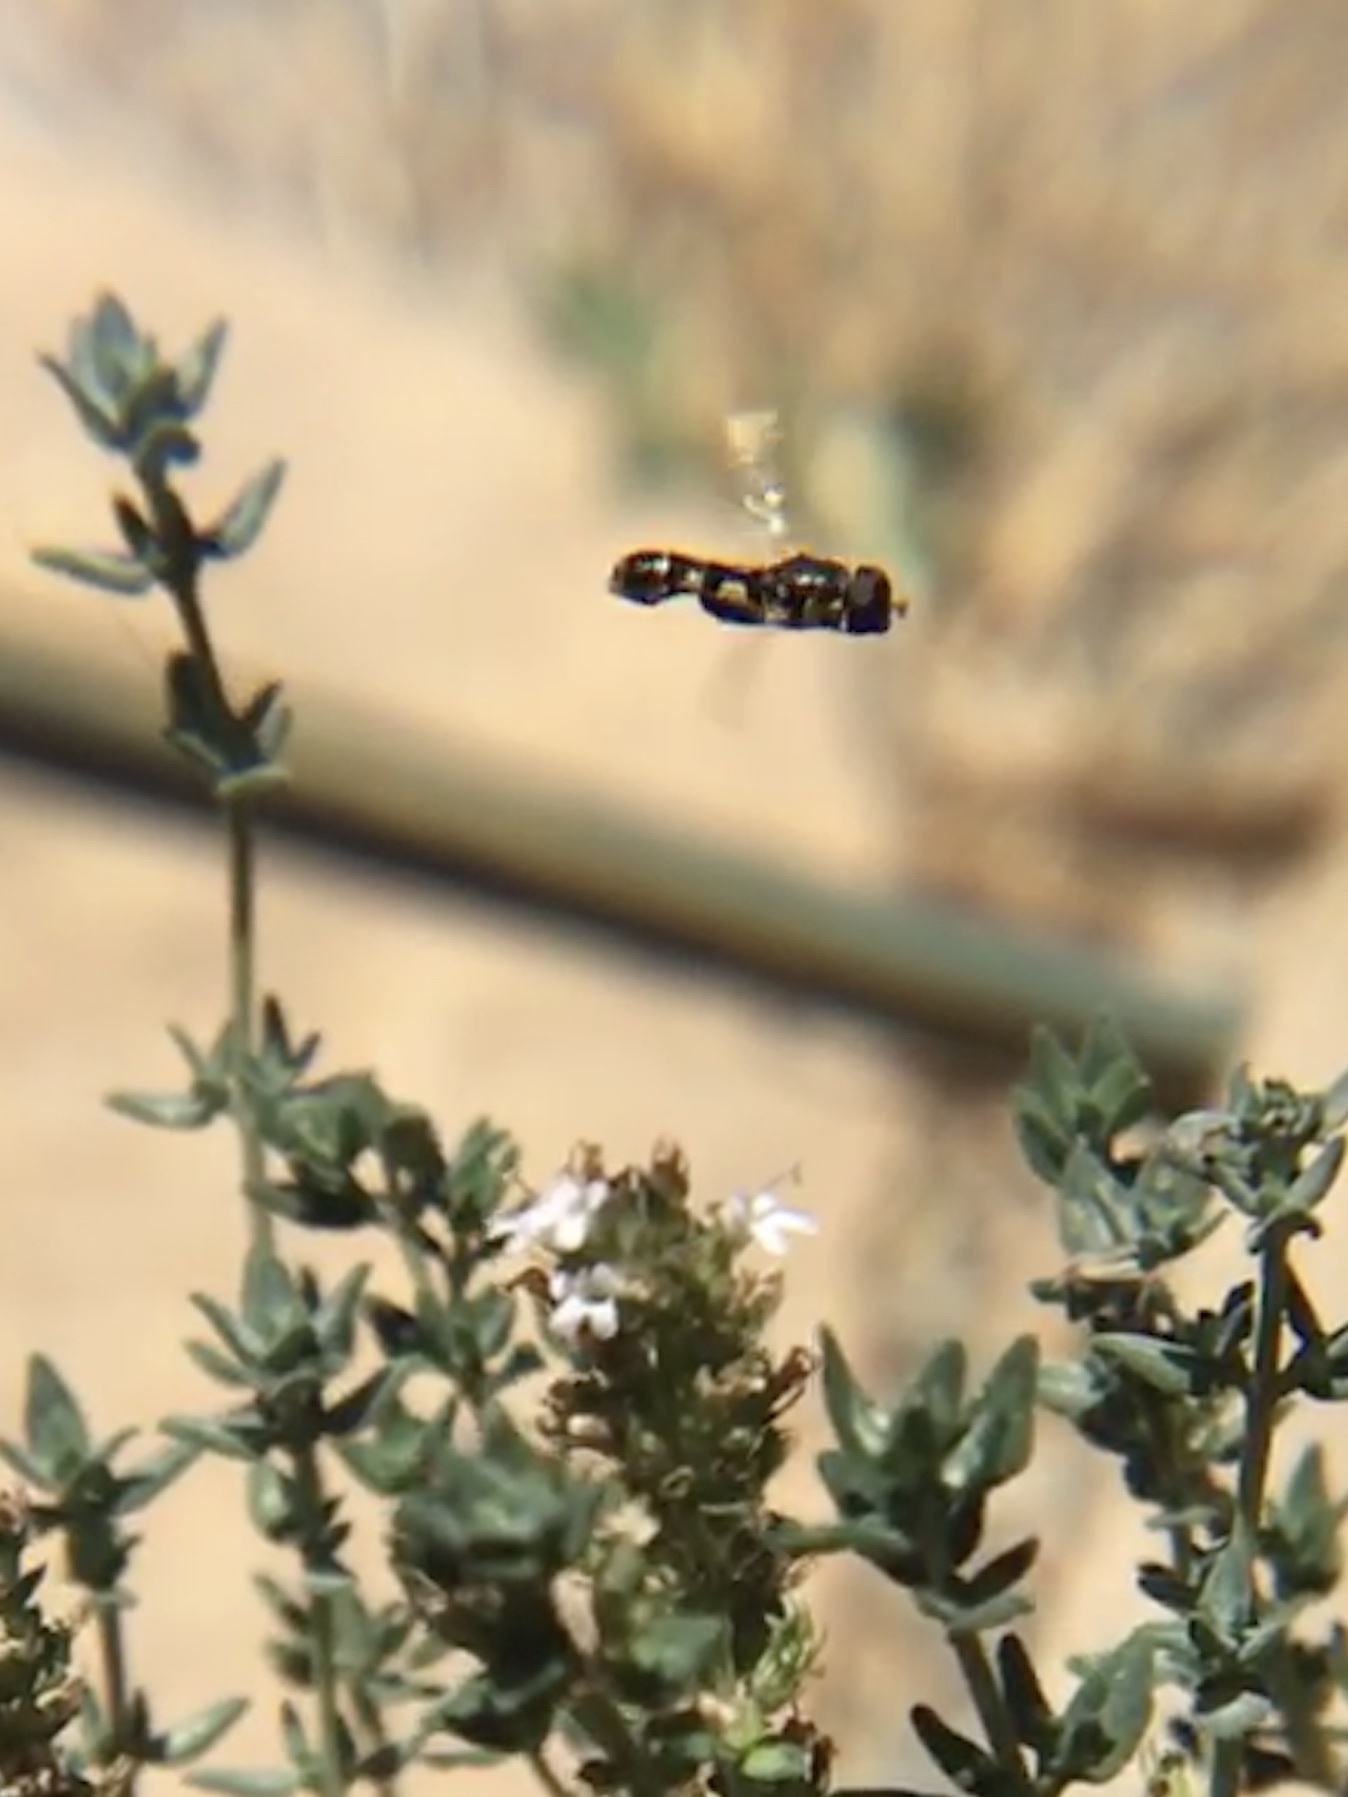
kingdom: Animalia
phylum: Arthropoda
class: Insecta
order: Diptera
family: Syrphidae
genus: Syritta
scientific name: Syritta pipiens
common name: Hover fly
